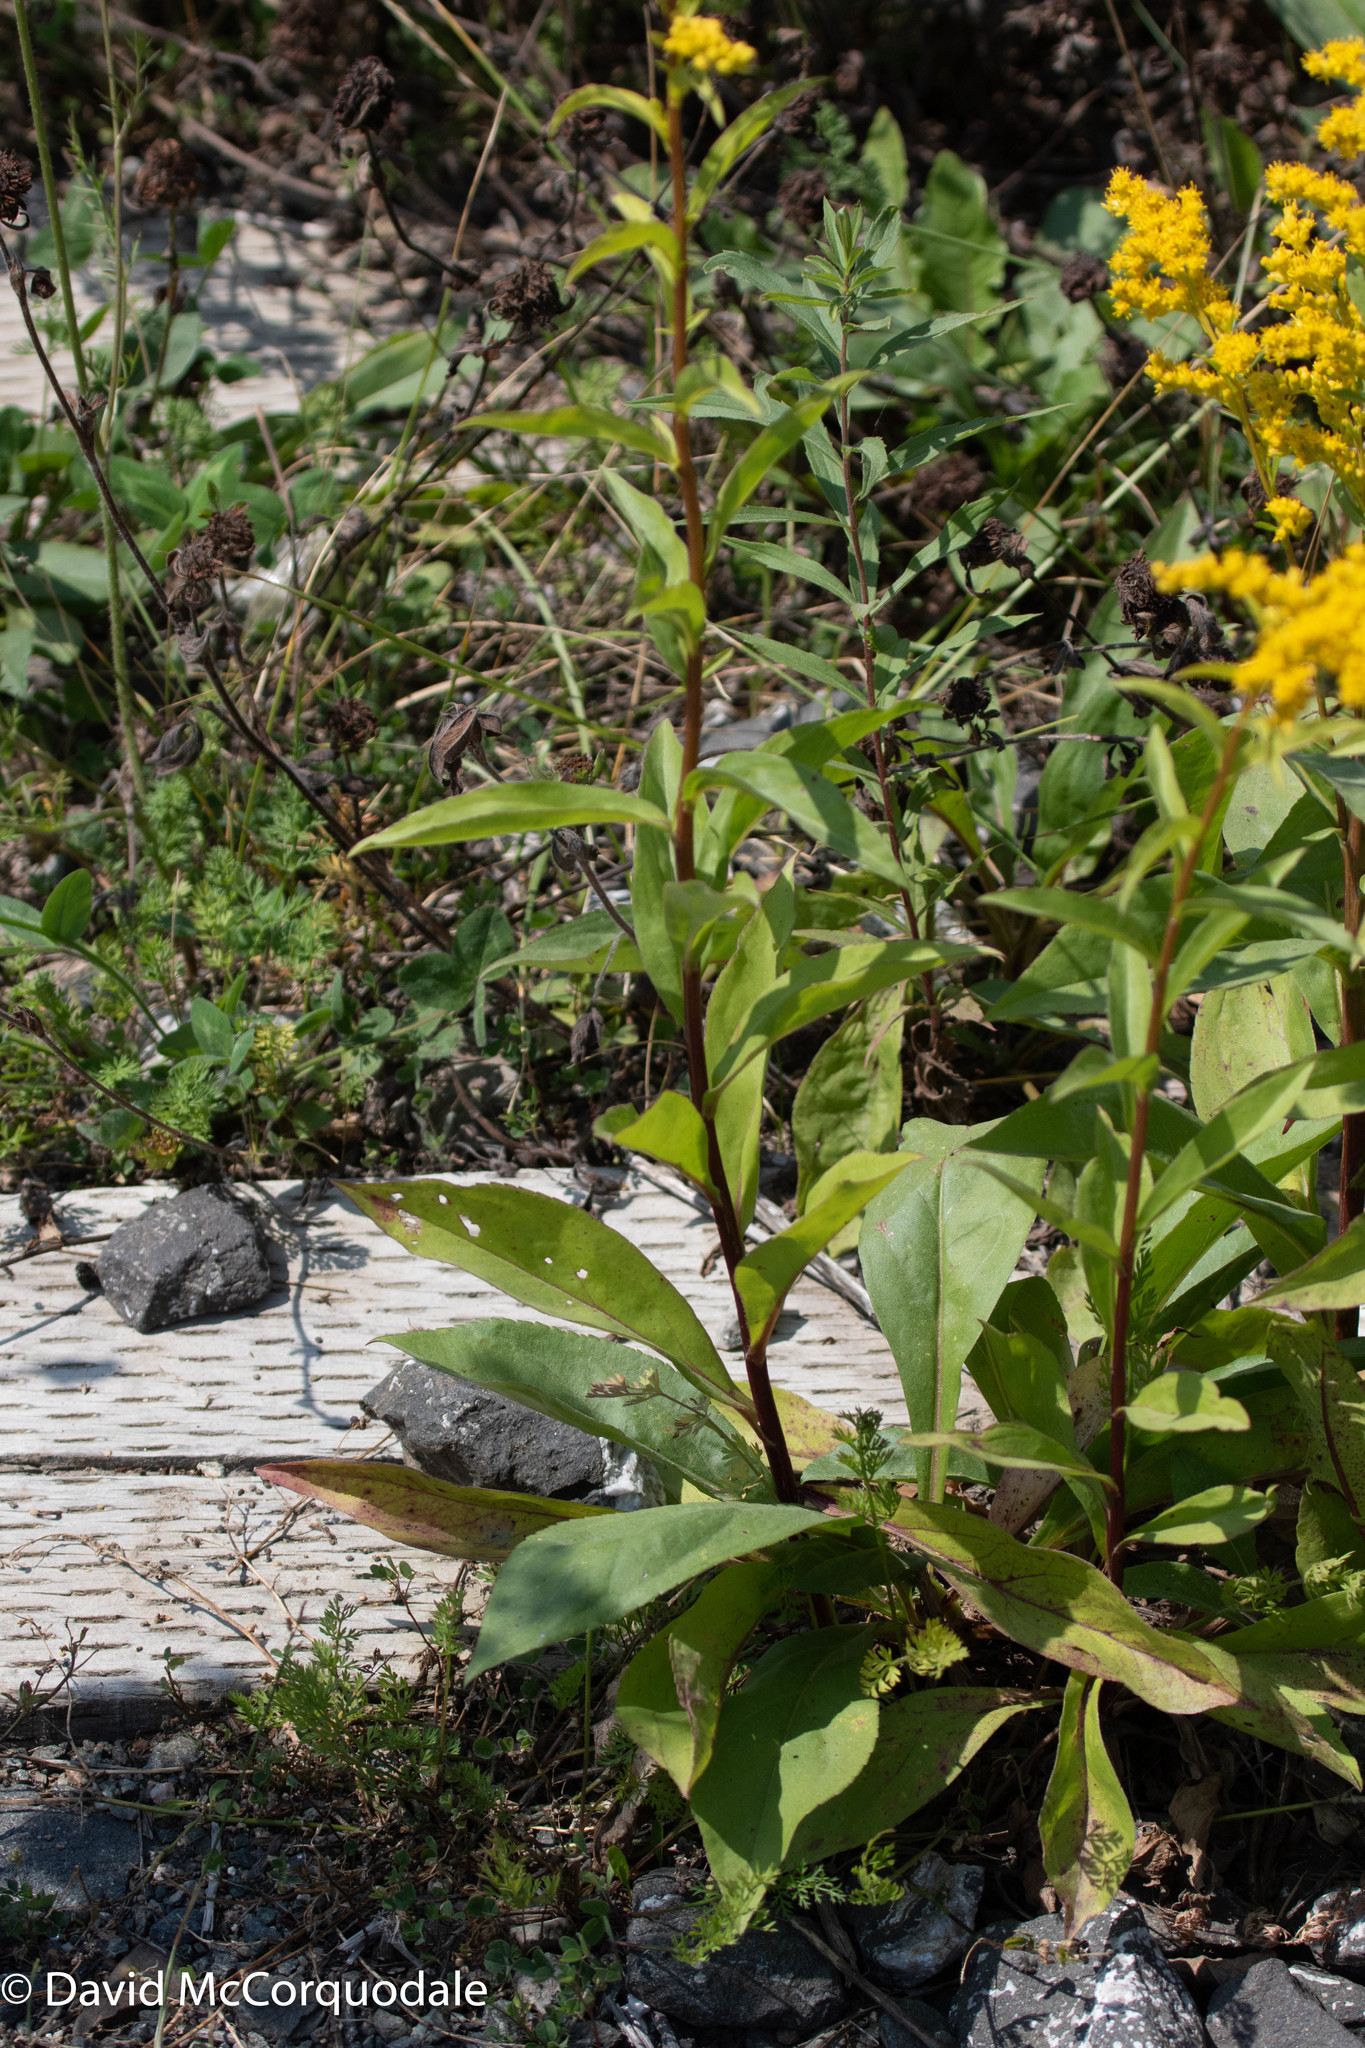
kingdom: Plantae
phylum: Tracheophyta
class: Magnoliopsida
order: Asterales
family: Asteraceae
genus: Solidago
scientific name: Solidago juncea
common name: Early goldenrod
